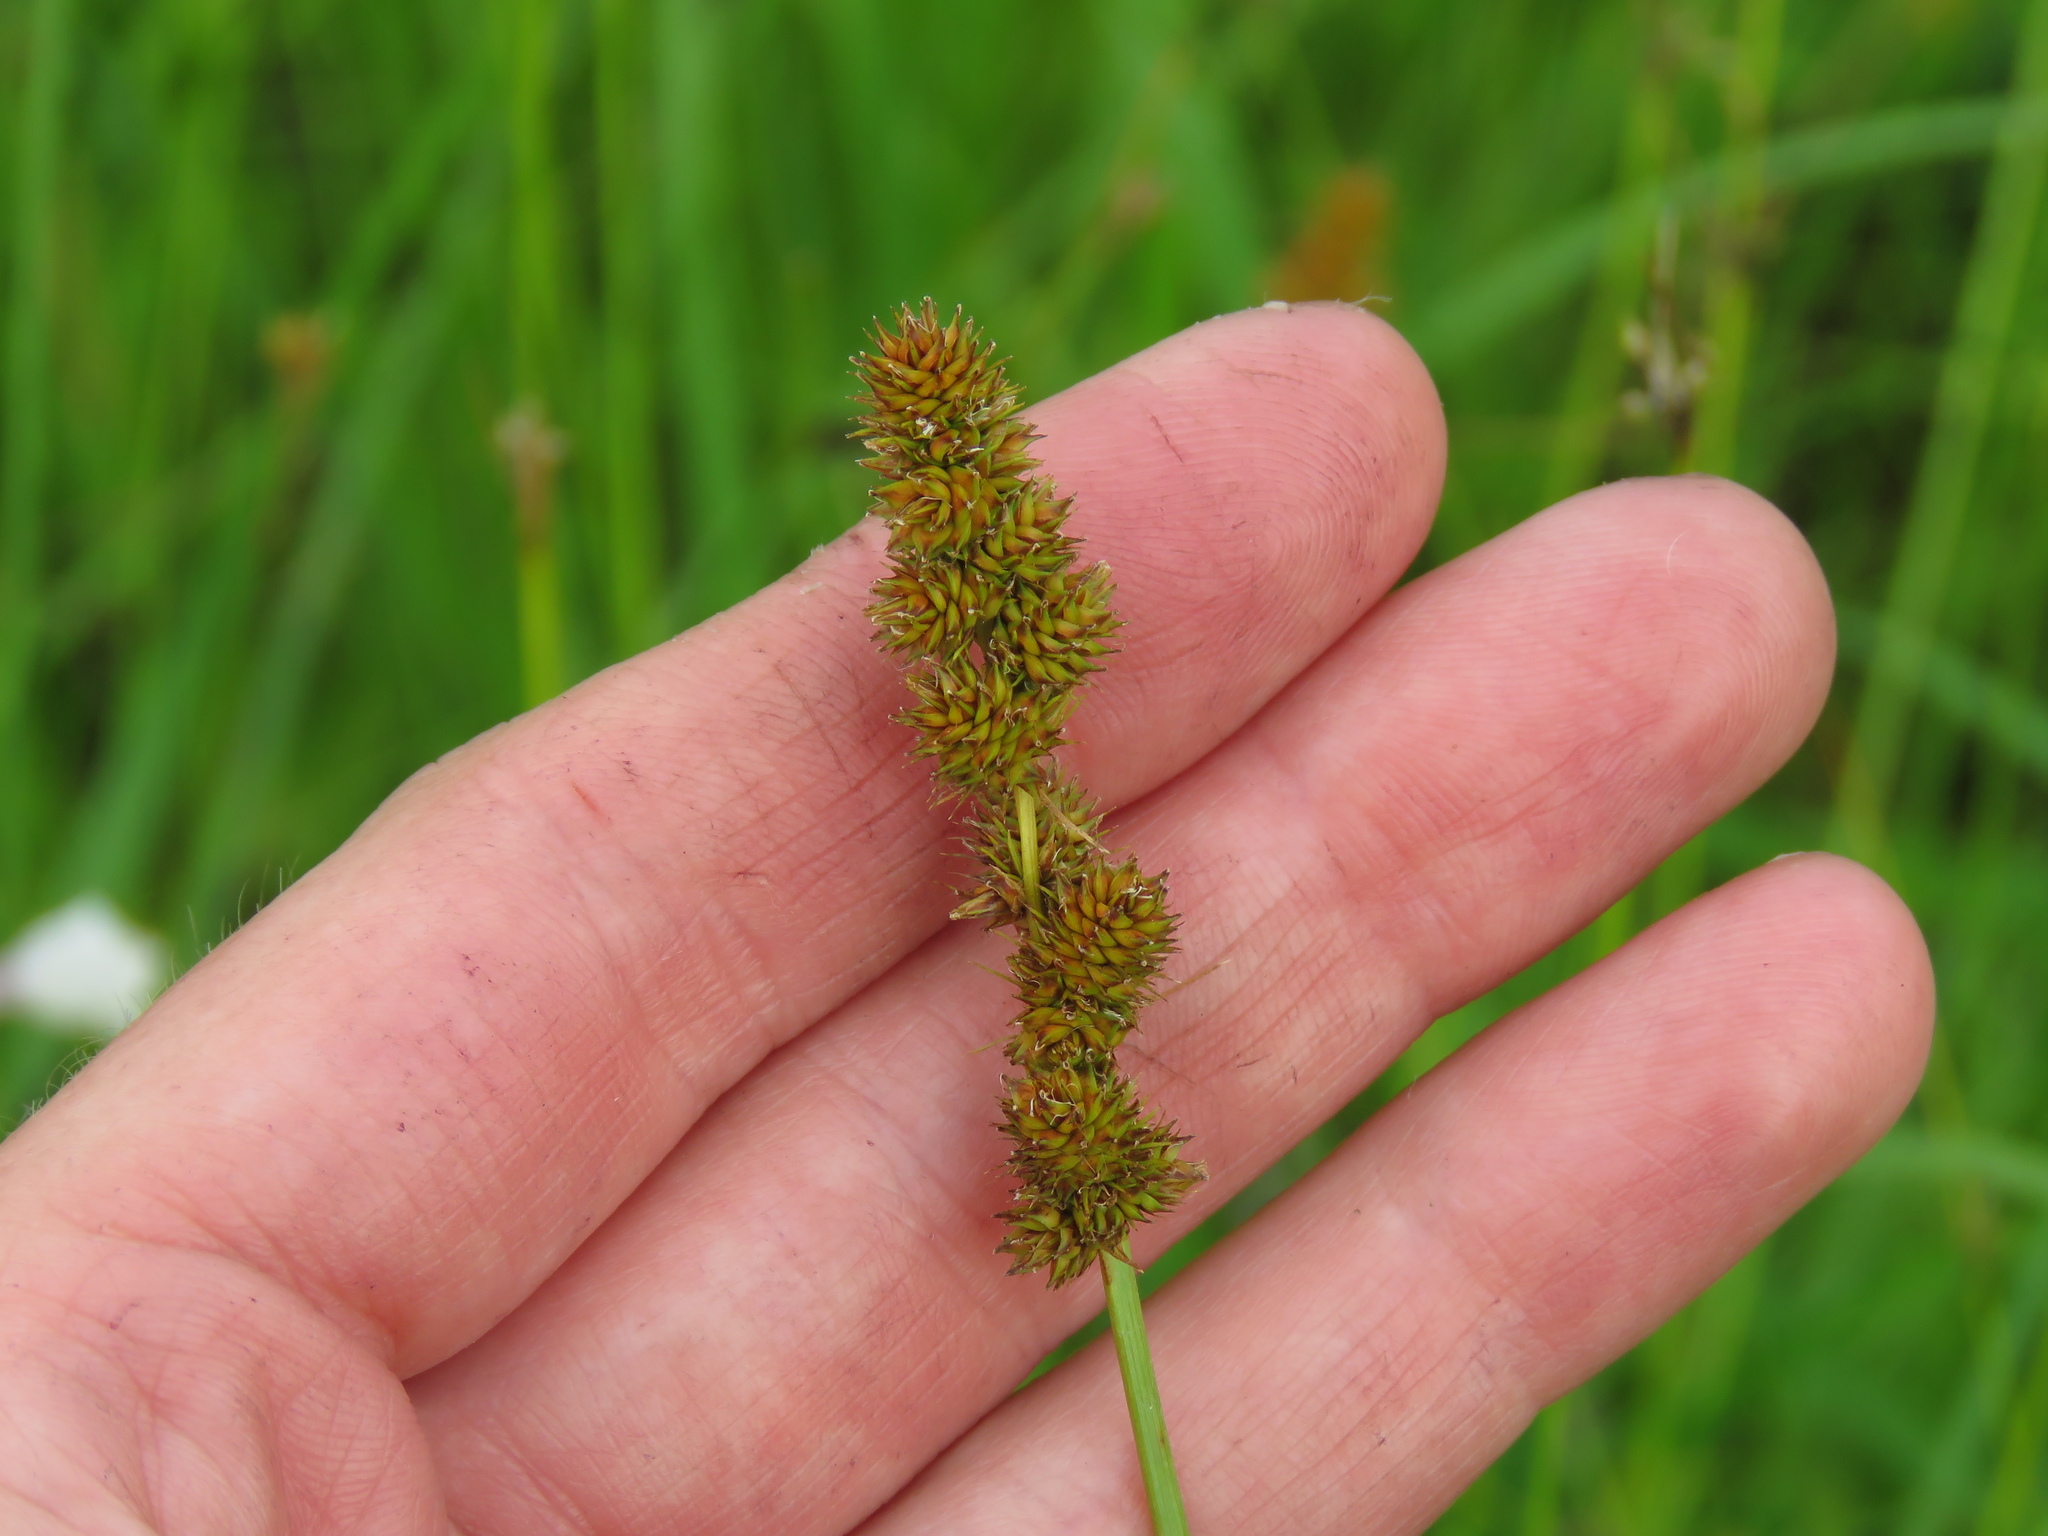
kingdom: Plantae
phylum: Tracheophyta
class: Liliopsida
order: Poales
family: Cyperaceae
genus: Carex
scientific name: Carex vulpinoidea
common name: American fox-sedge
